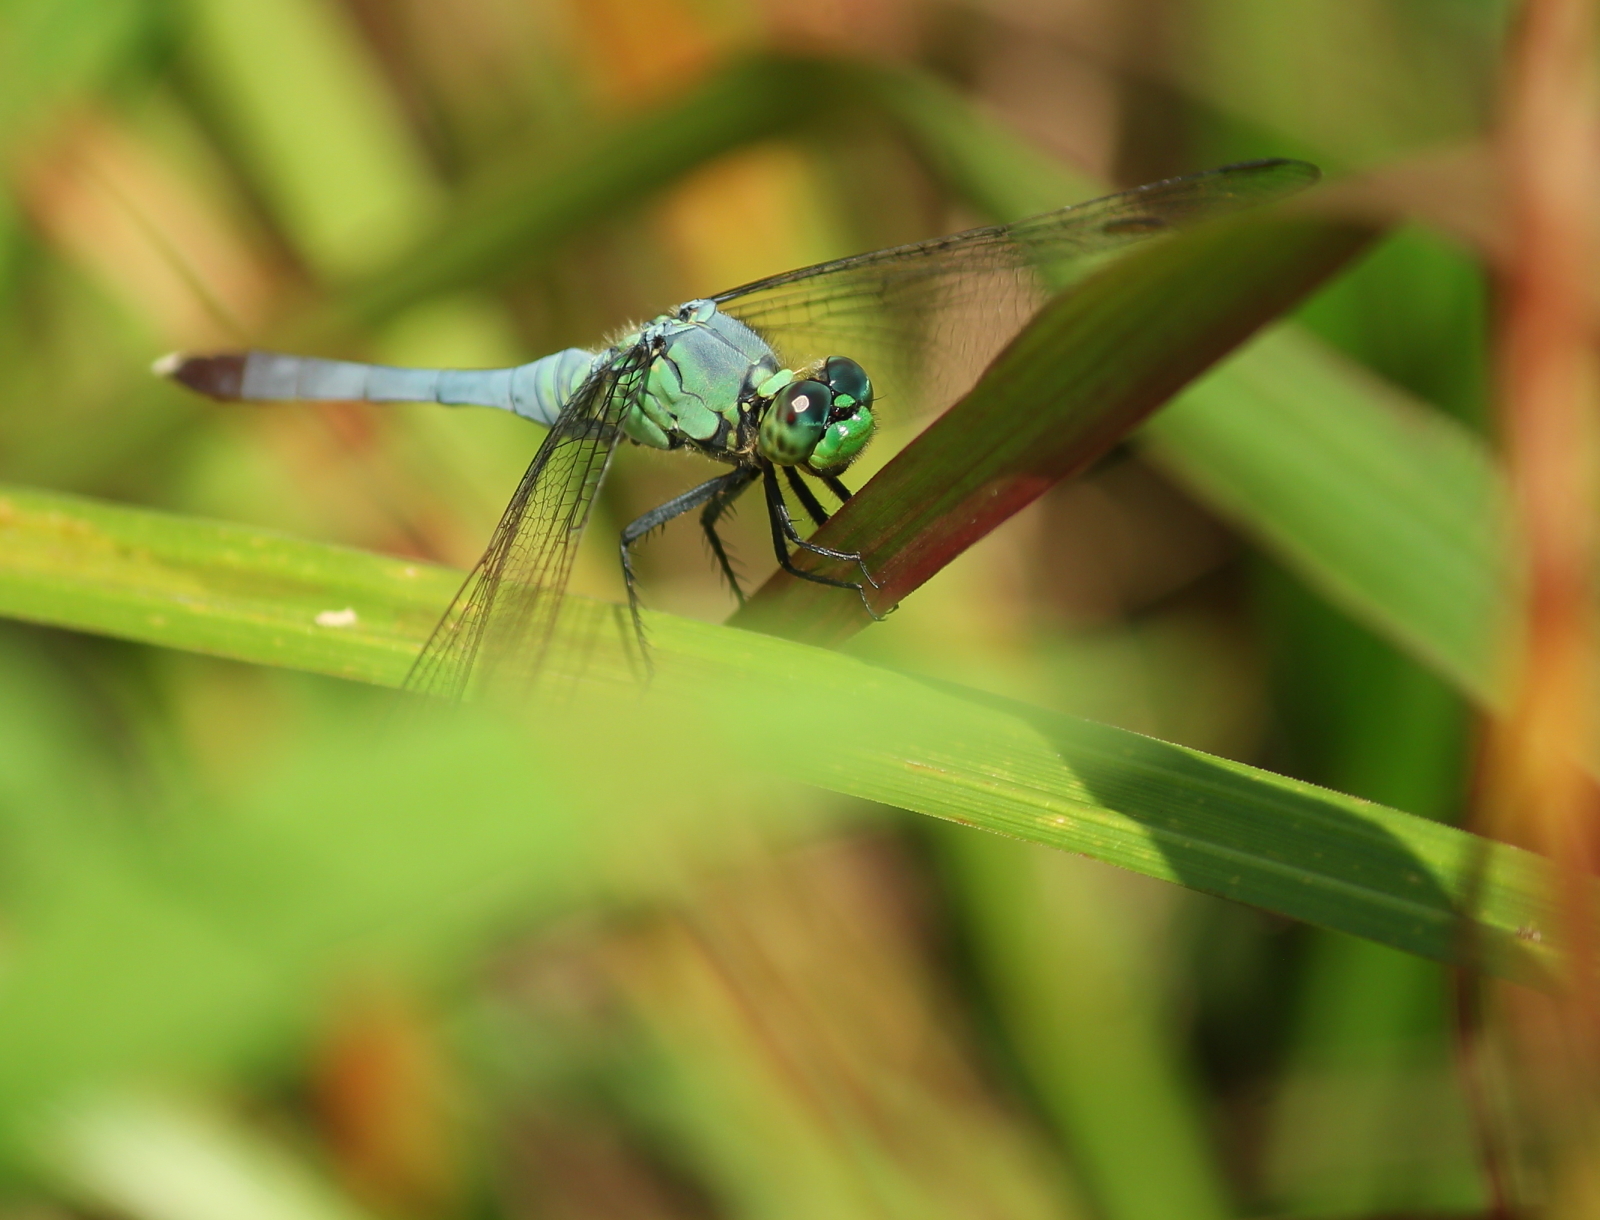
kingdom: Animalia
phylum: Arthropoda
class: Insecta
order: Odonata
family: Libellulidae
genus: Erythemis
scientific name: Erythemis simplicicollis
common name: Eastern pondhawk
